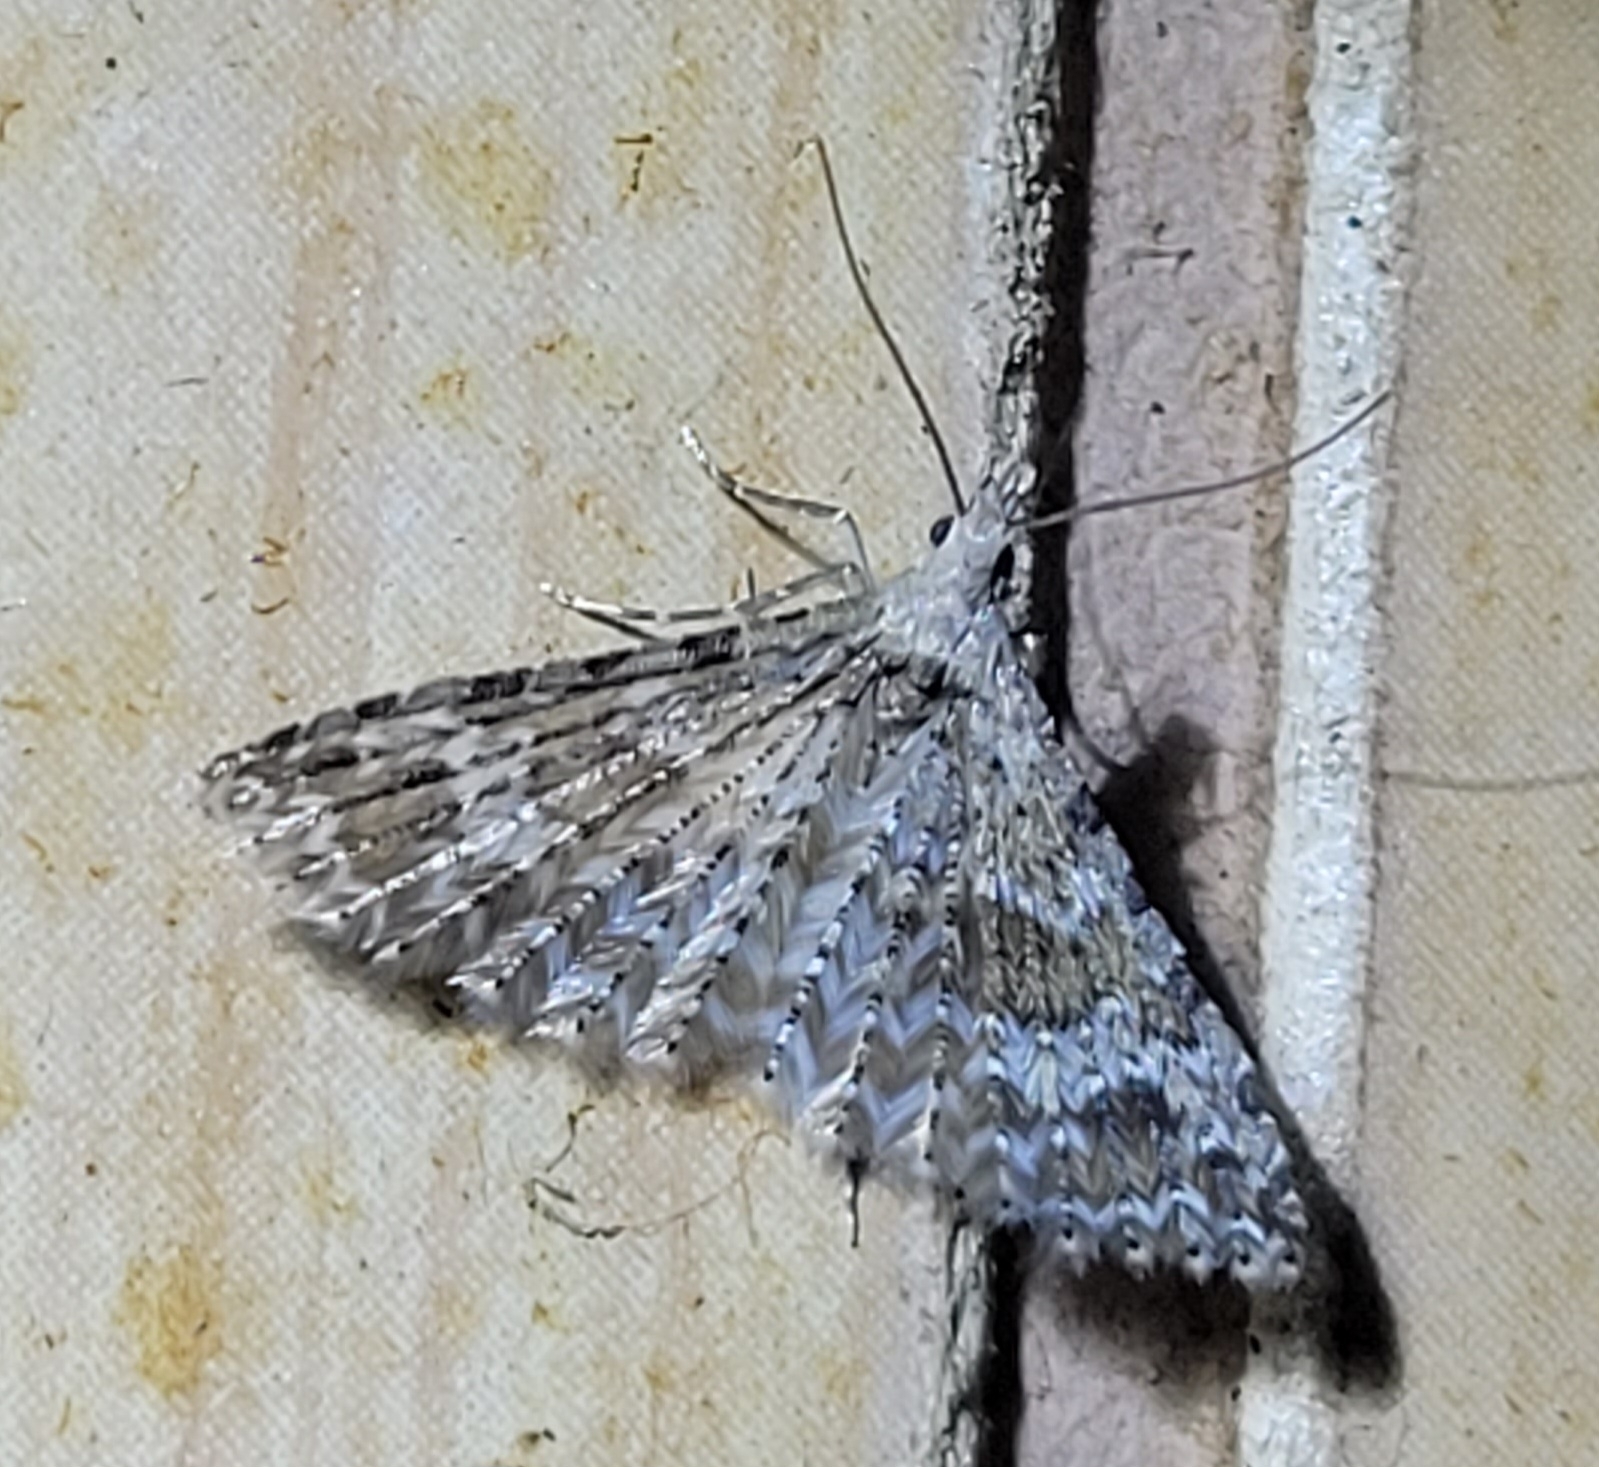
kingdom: Animalia
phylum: Arthropoda
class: Insecta
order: Lepidoptera
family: Alucitidae
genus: Alucita
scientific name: Alucita montana
